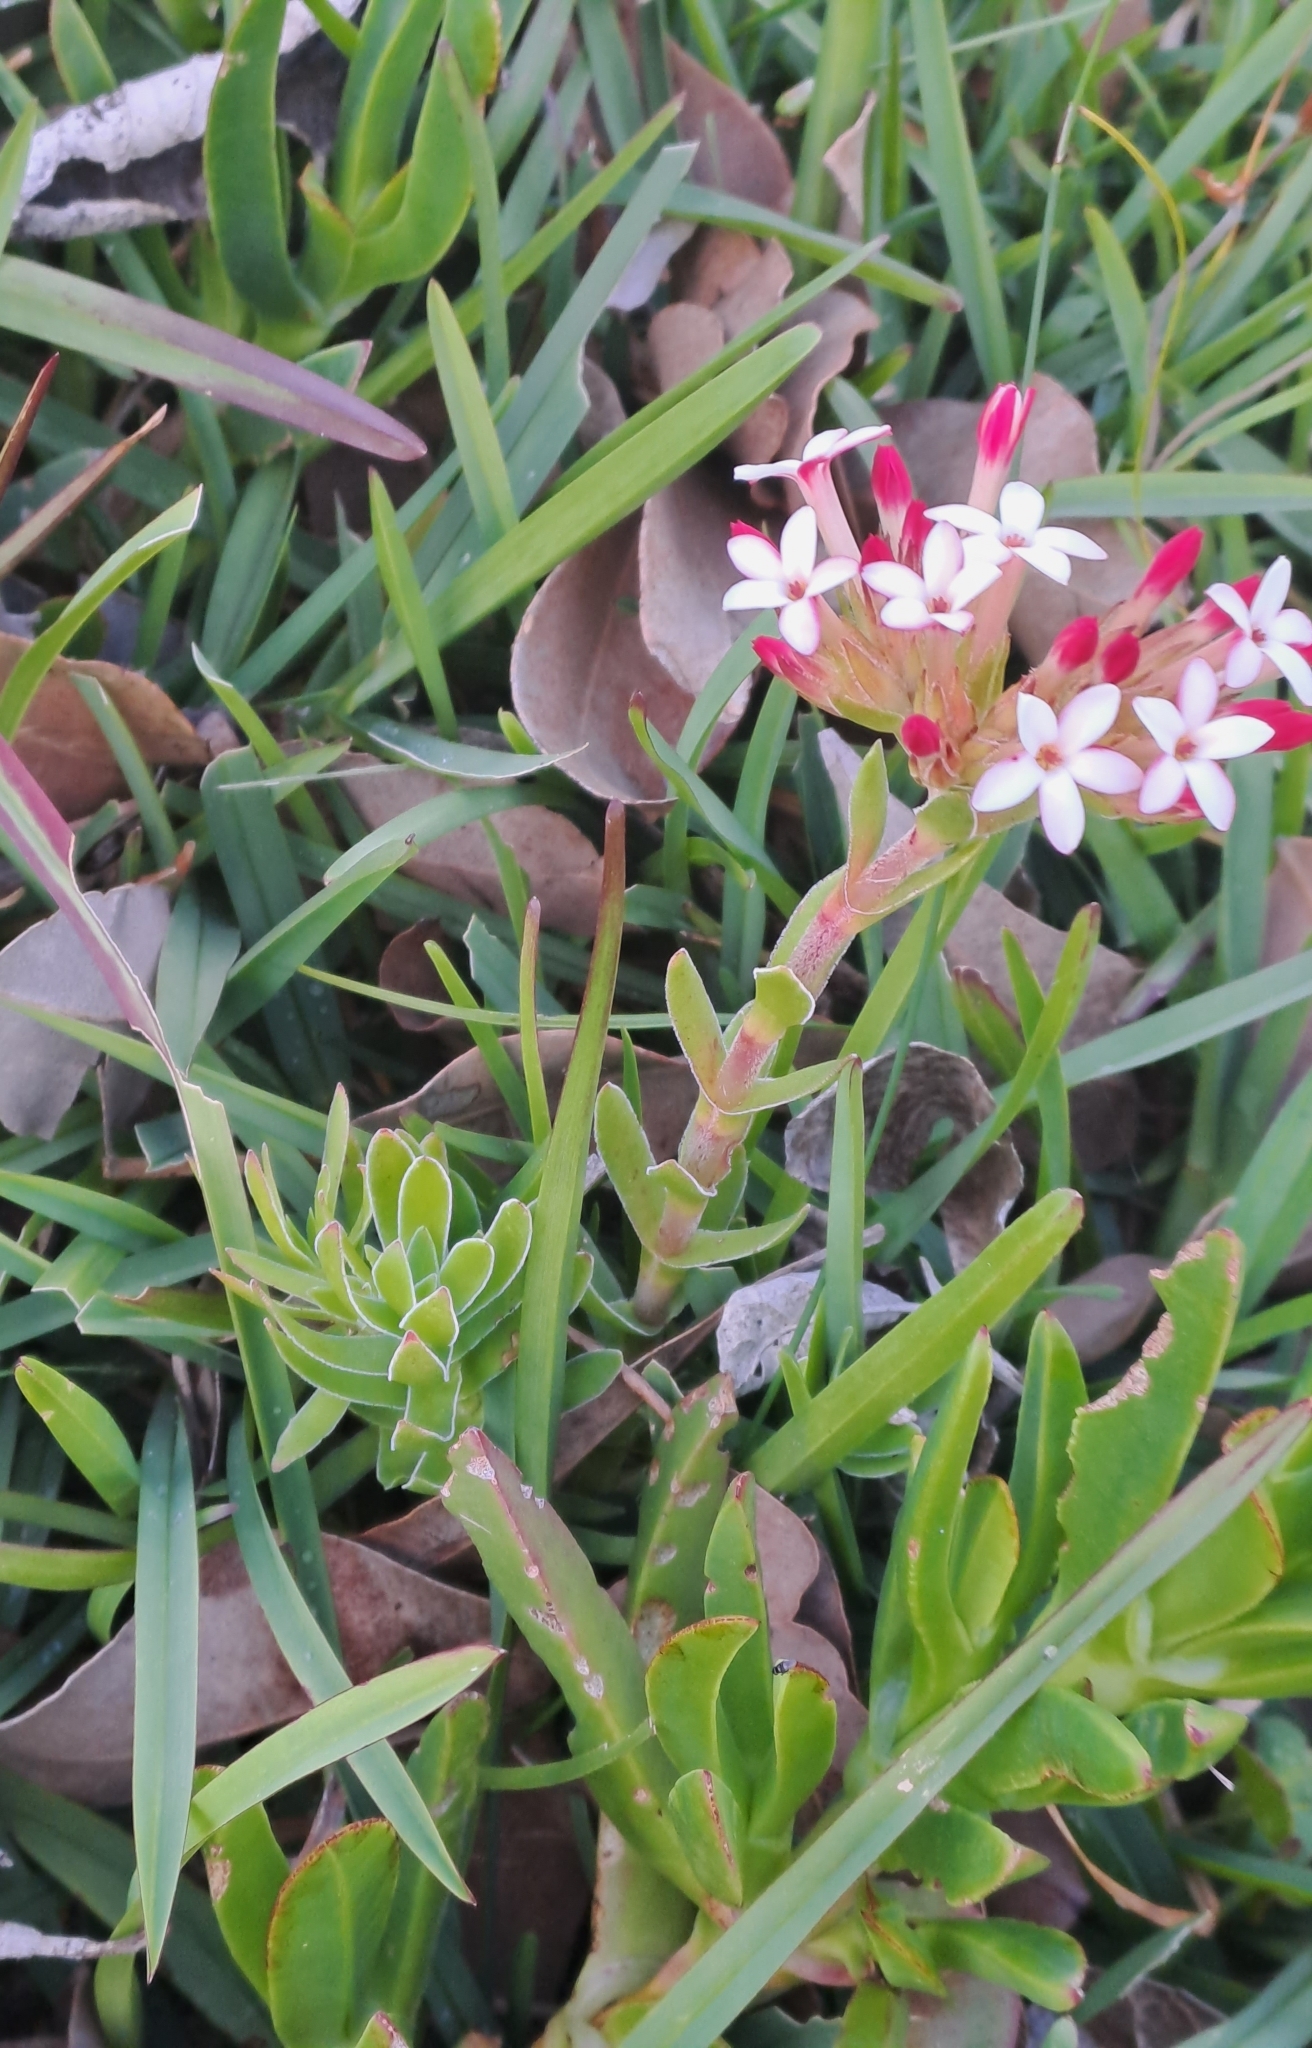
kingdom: Plantae
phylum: Tracheophyta
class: Magnoliopsida
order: Saxifragales
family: Crassulaceae
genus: Crassula
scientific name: Crassula fascicularis
